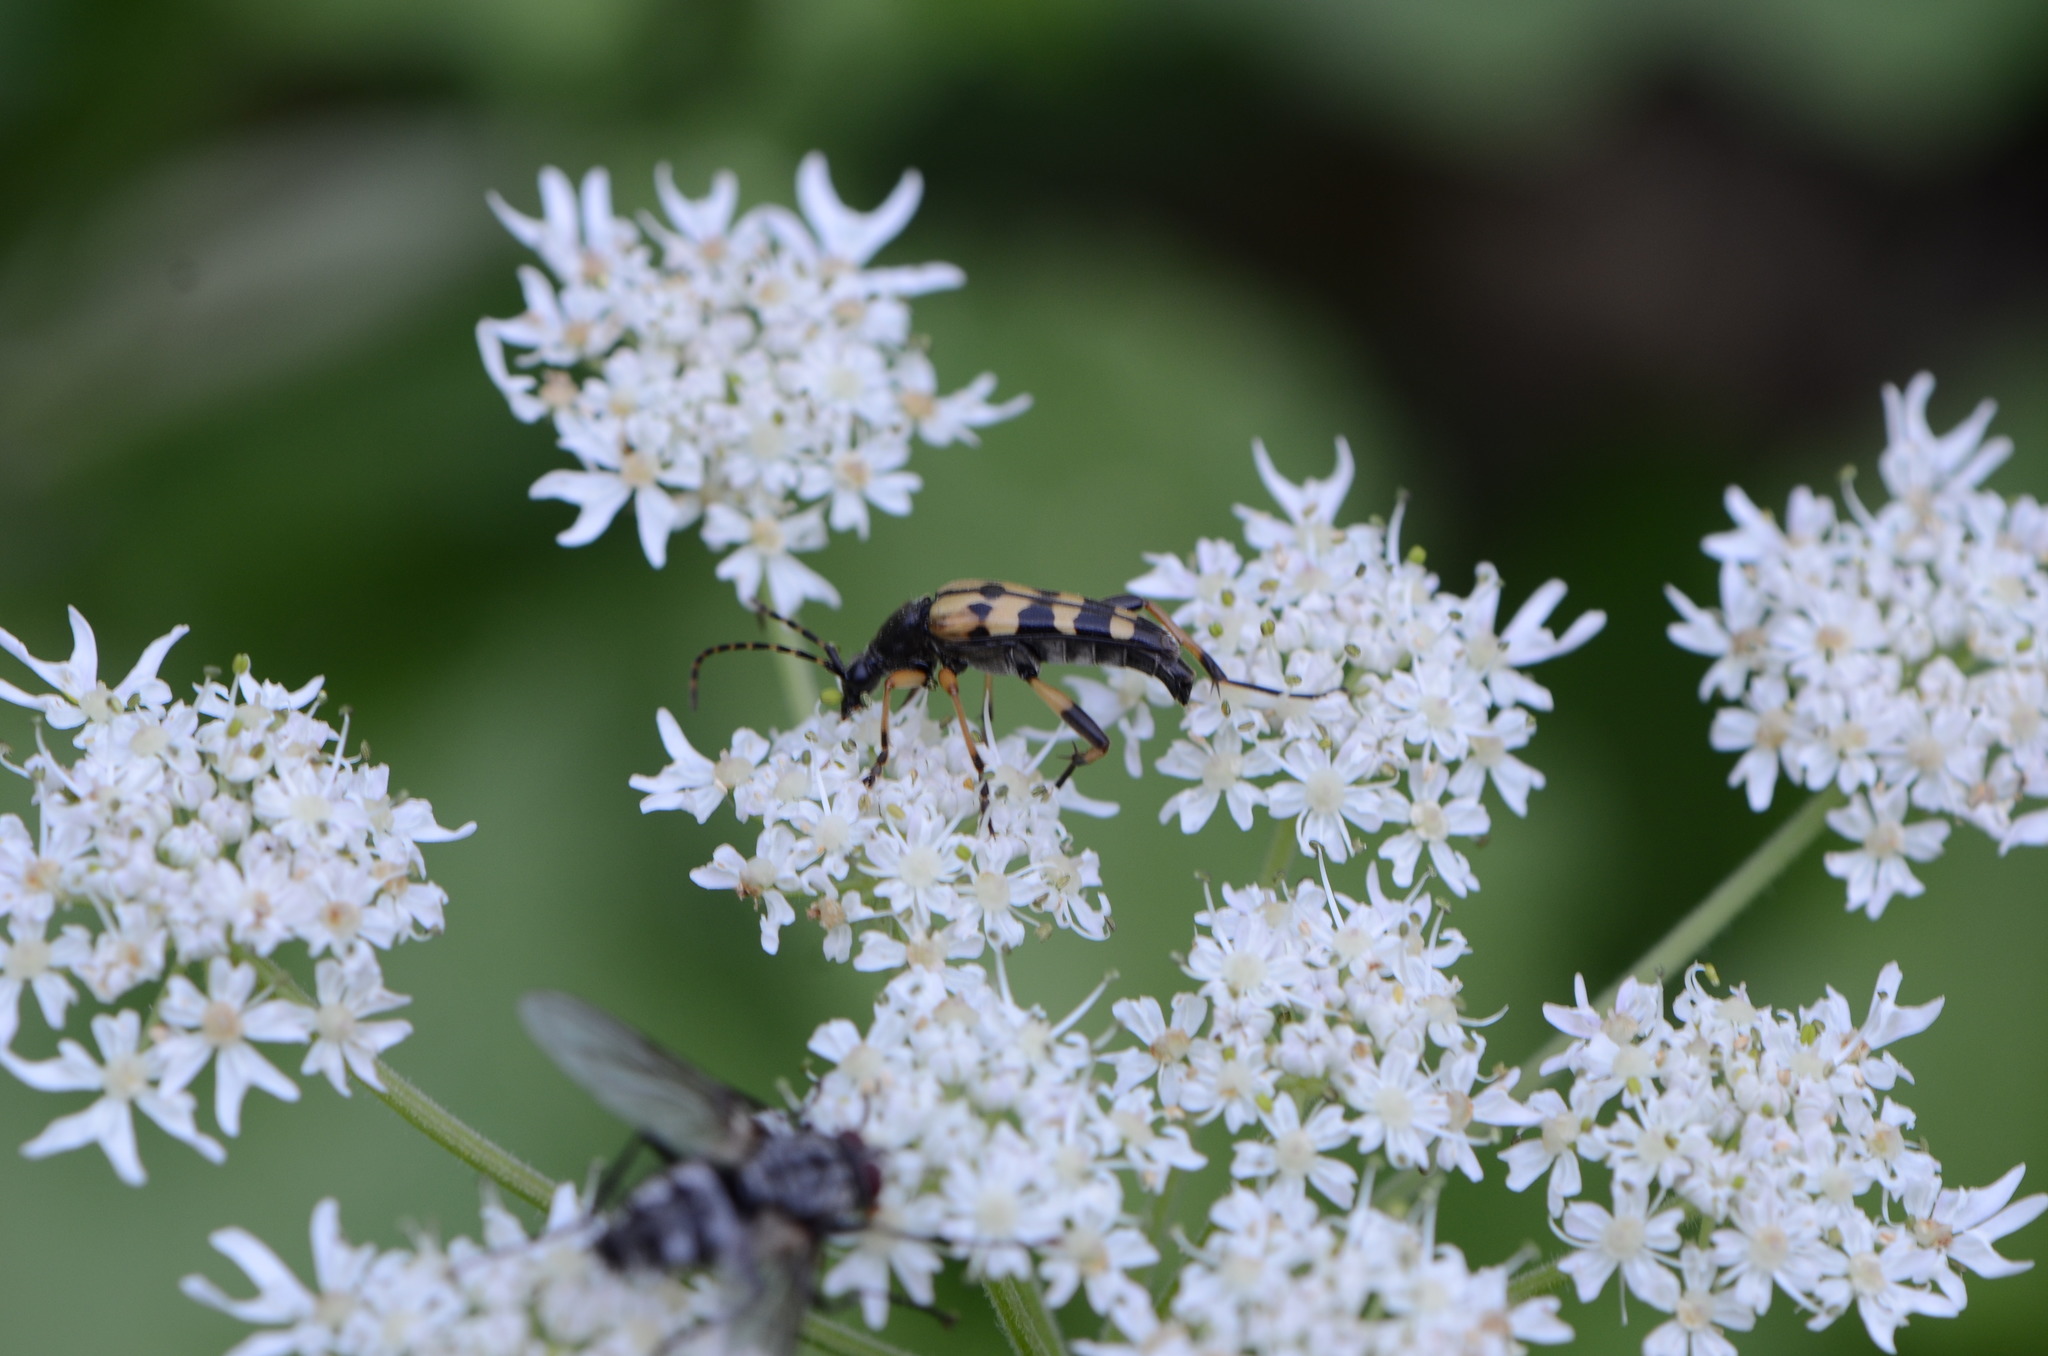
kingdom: Animalia
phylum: Arthropoda
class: Insecta
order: Coleoptera
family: Cerambycidae
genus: Rutpela
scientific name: Rutpela maculata
